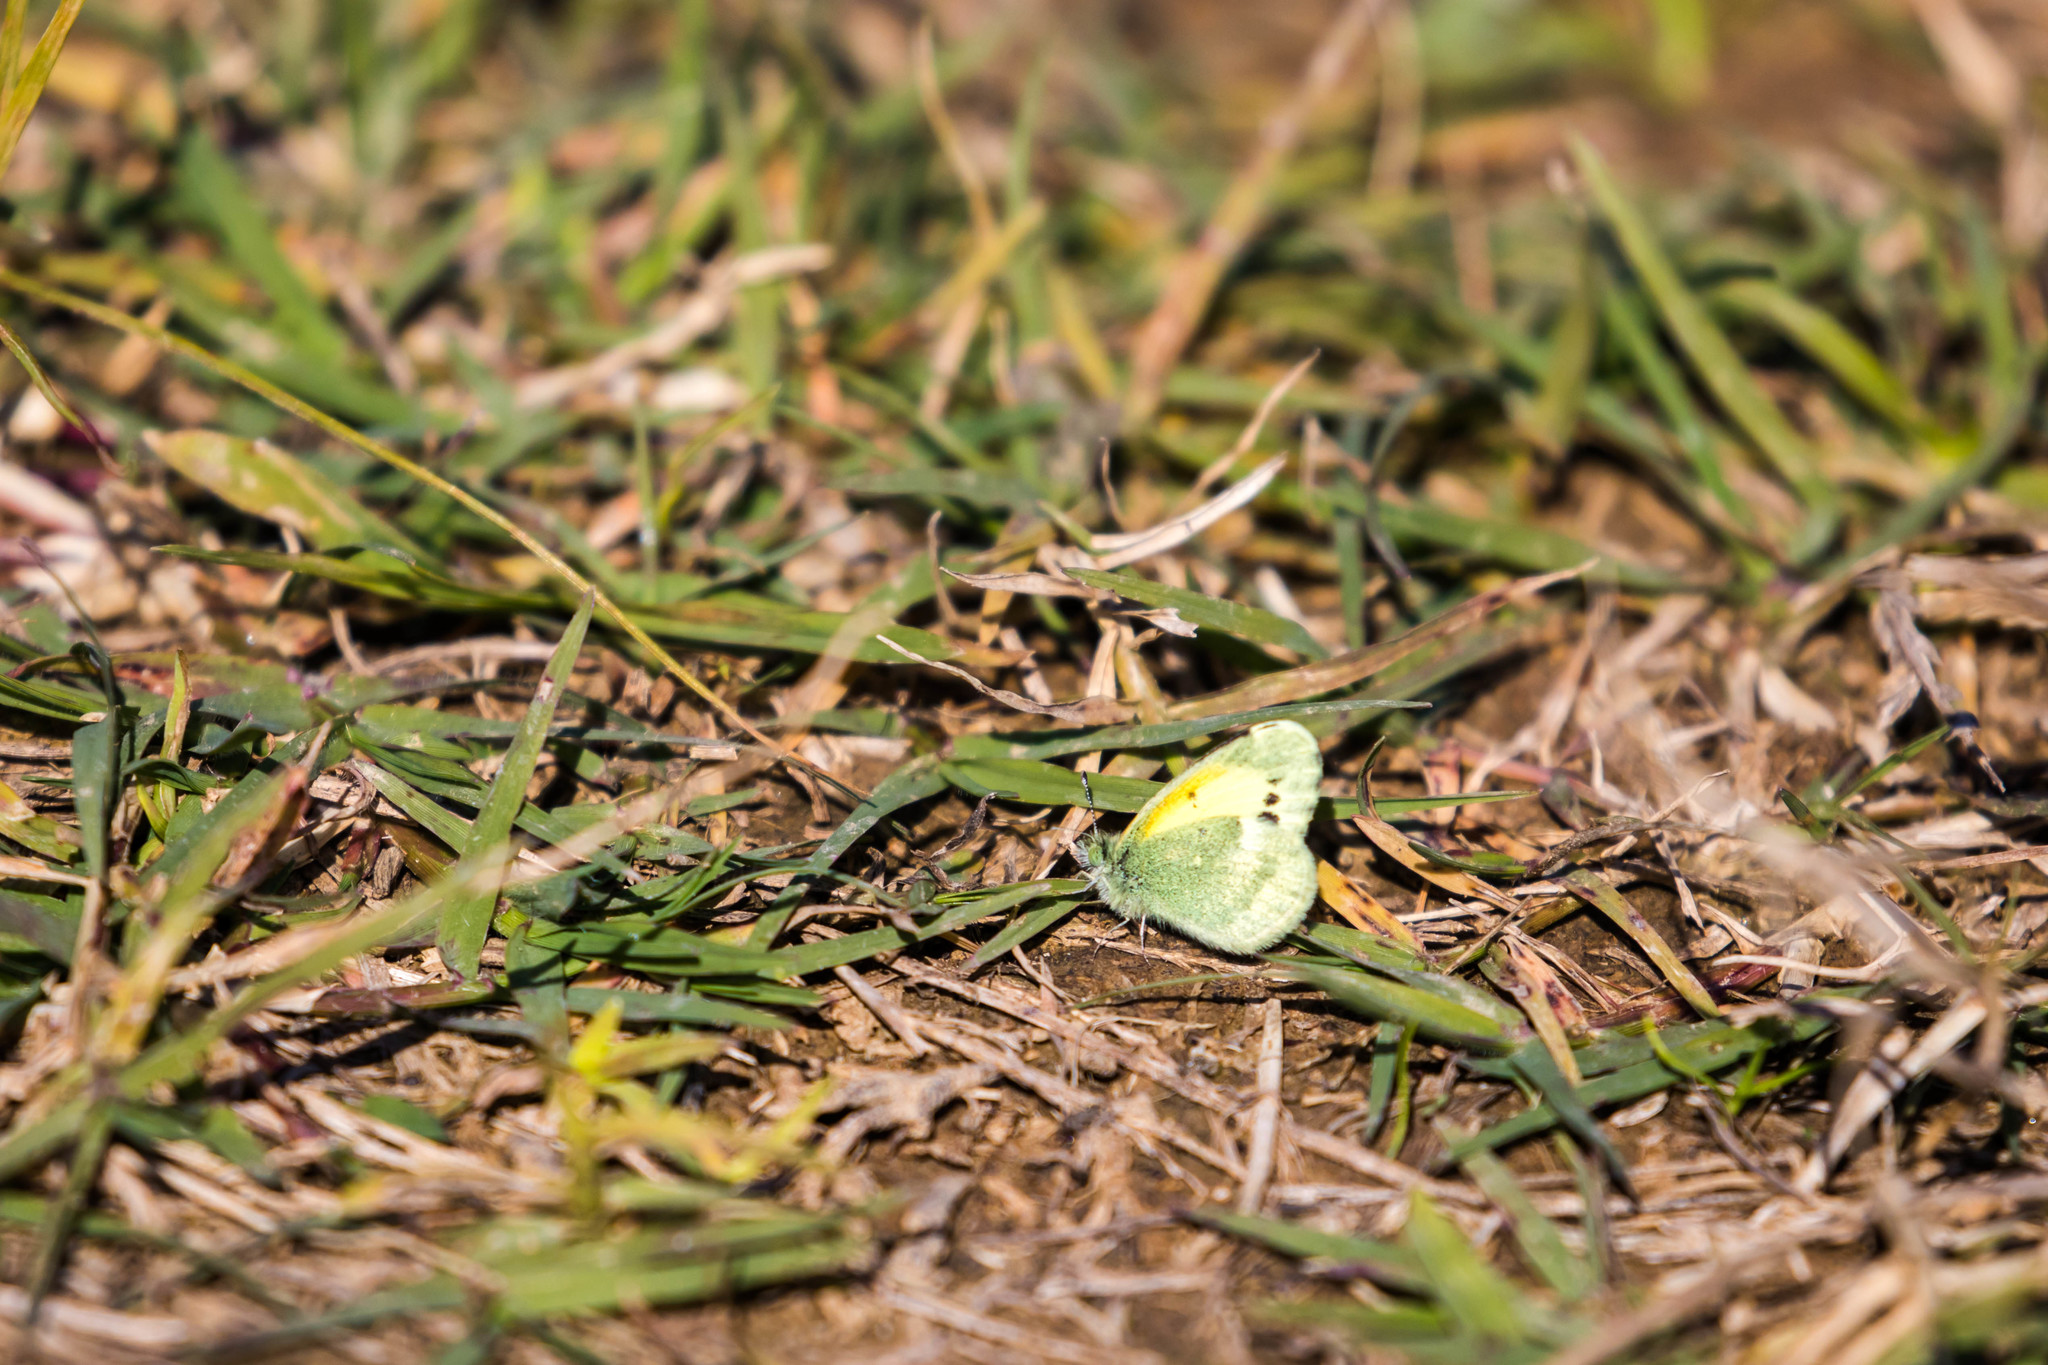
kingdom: Animalia
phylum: Arthropoda
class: Insecta
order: Lepidoptera
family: Pieridae
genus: Nathalis
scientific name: Nathalis iole
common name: Dainty sulphur
